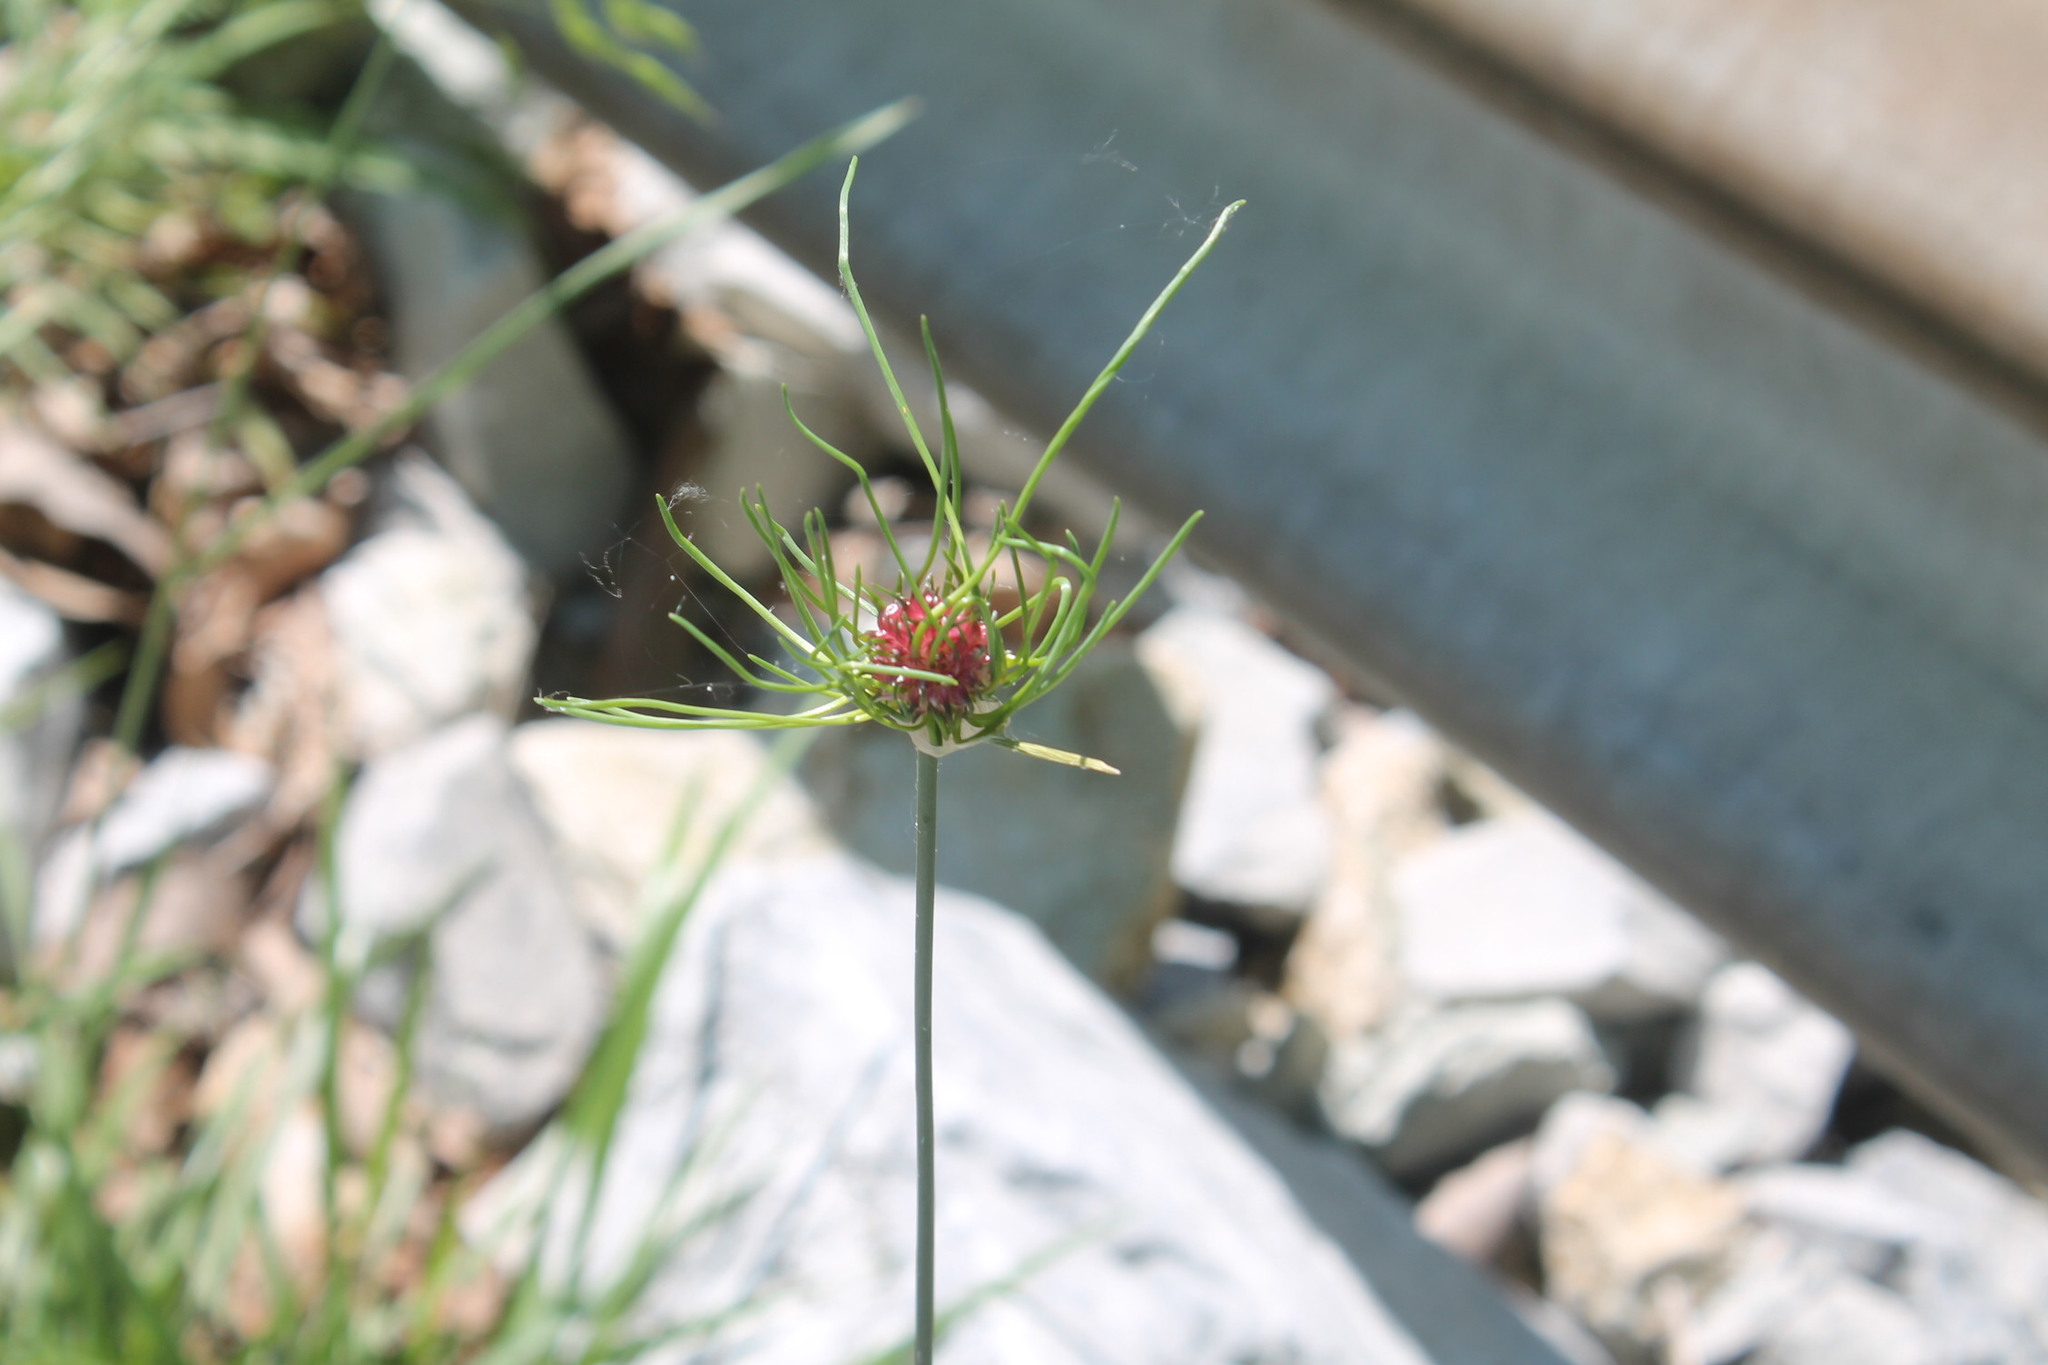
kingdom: Plantae
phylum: Tracheophyta
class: Liliopsida
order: Asparagales
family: Amaryllidaceae
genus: Allium
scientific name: Allium vineale
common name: Crow garlic
